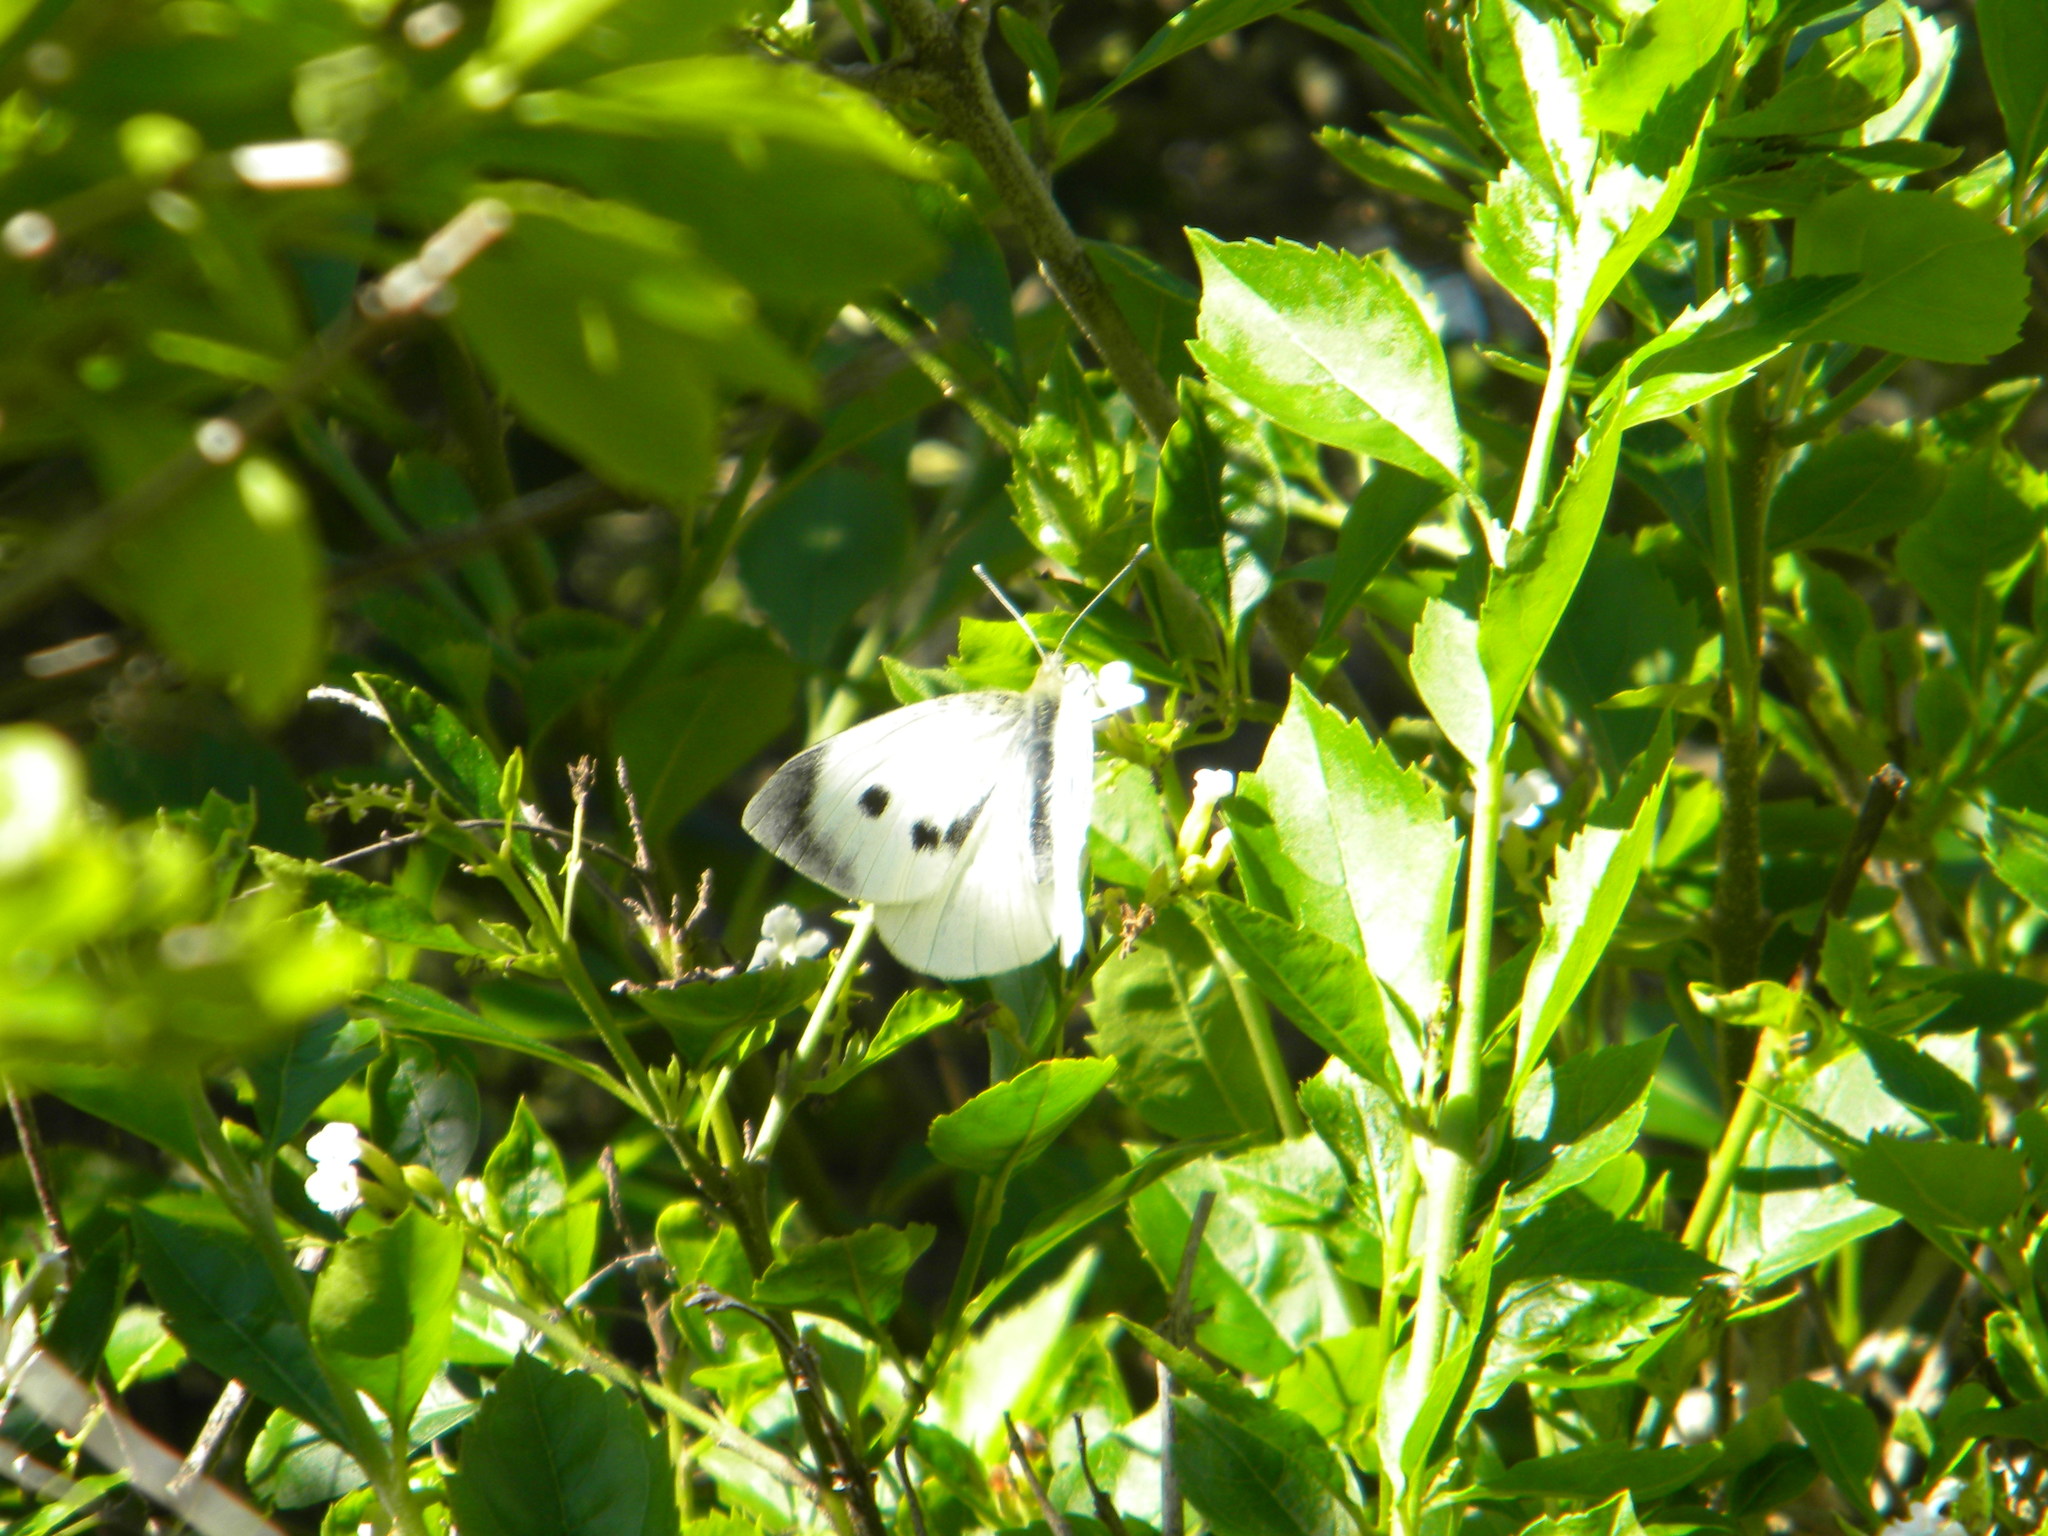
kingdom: Animalia
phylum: Arthropoda
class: Insecta
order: Lepidoptera
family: Pieridae
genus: Pieris
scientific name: Pieris brassicae
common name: Large white
